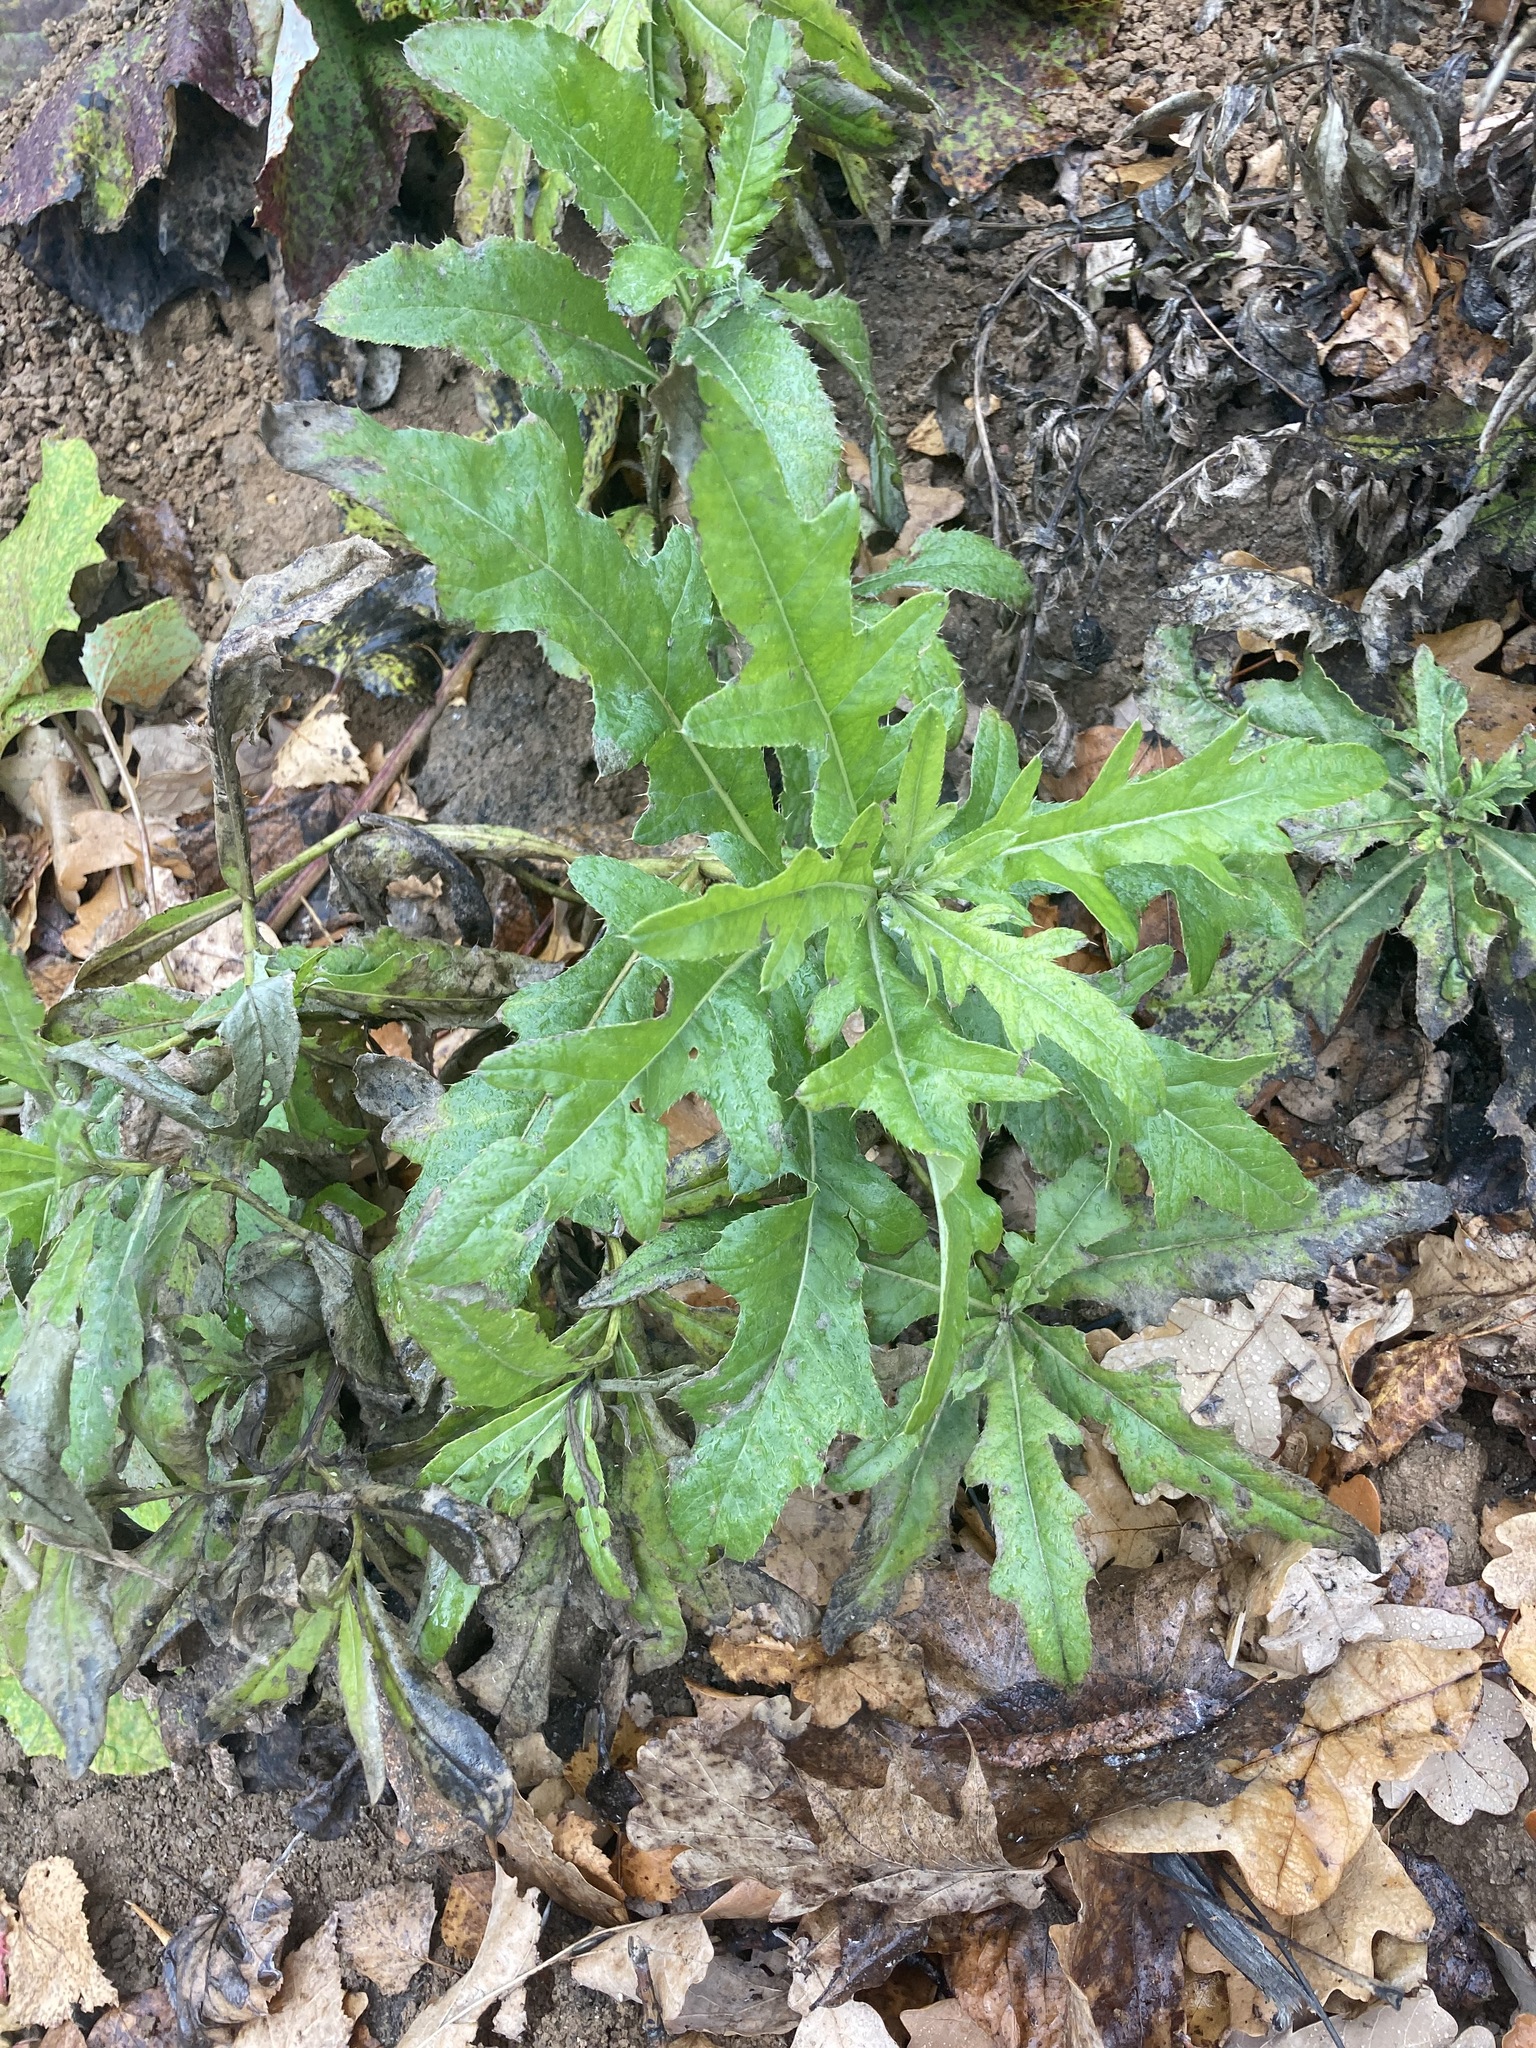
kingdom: Plantae
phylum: Tracheophyta
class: Magnoliopsida
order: Asterales
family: Asteraceae
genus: Cirsium
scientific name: Cirsium arvense
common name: Creeping thistle
